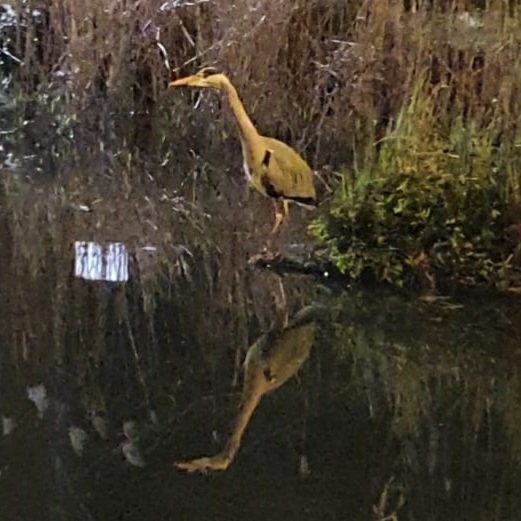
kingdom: Animalia
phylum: Chordata
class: Aves
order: Pelecaniformes
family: Ardeidae
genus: Ardea
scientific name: Ardea cinerea
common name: Grey heron
